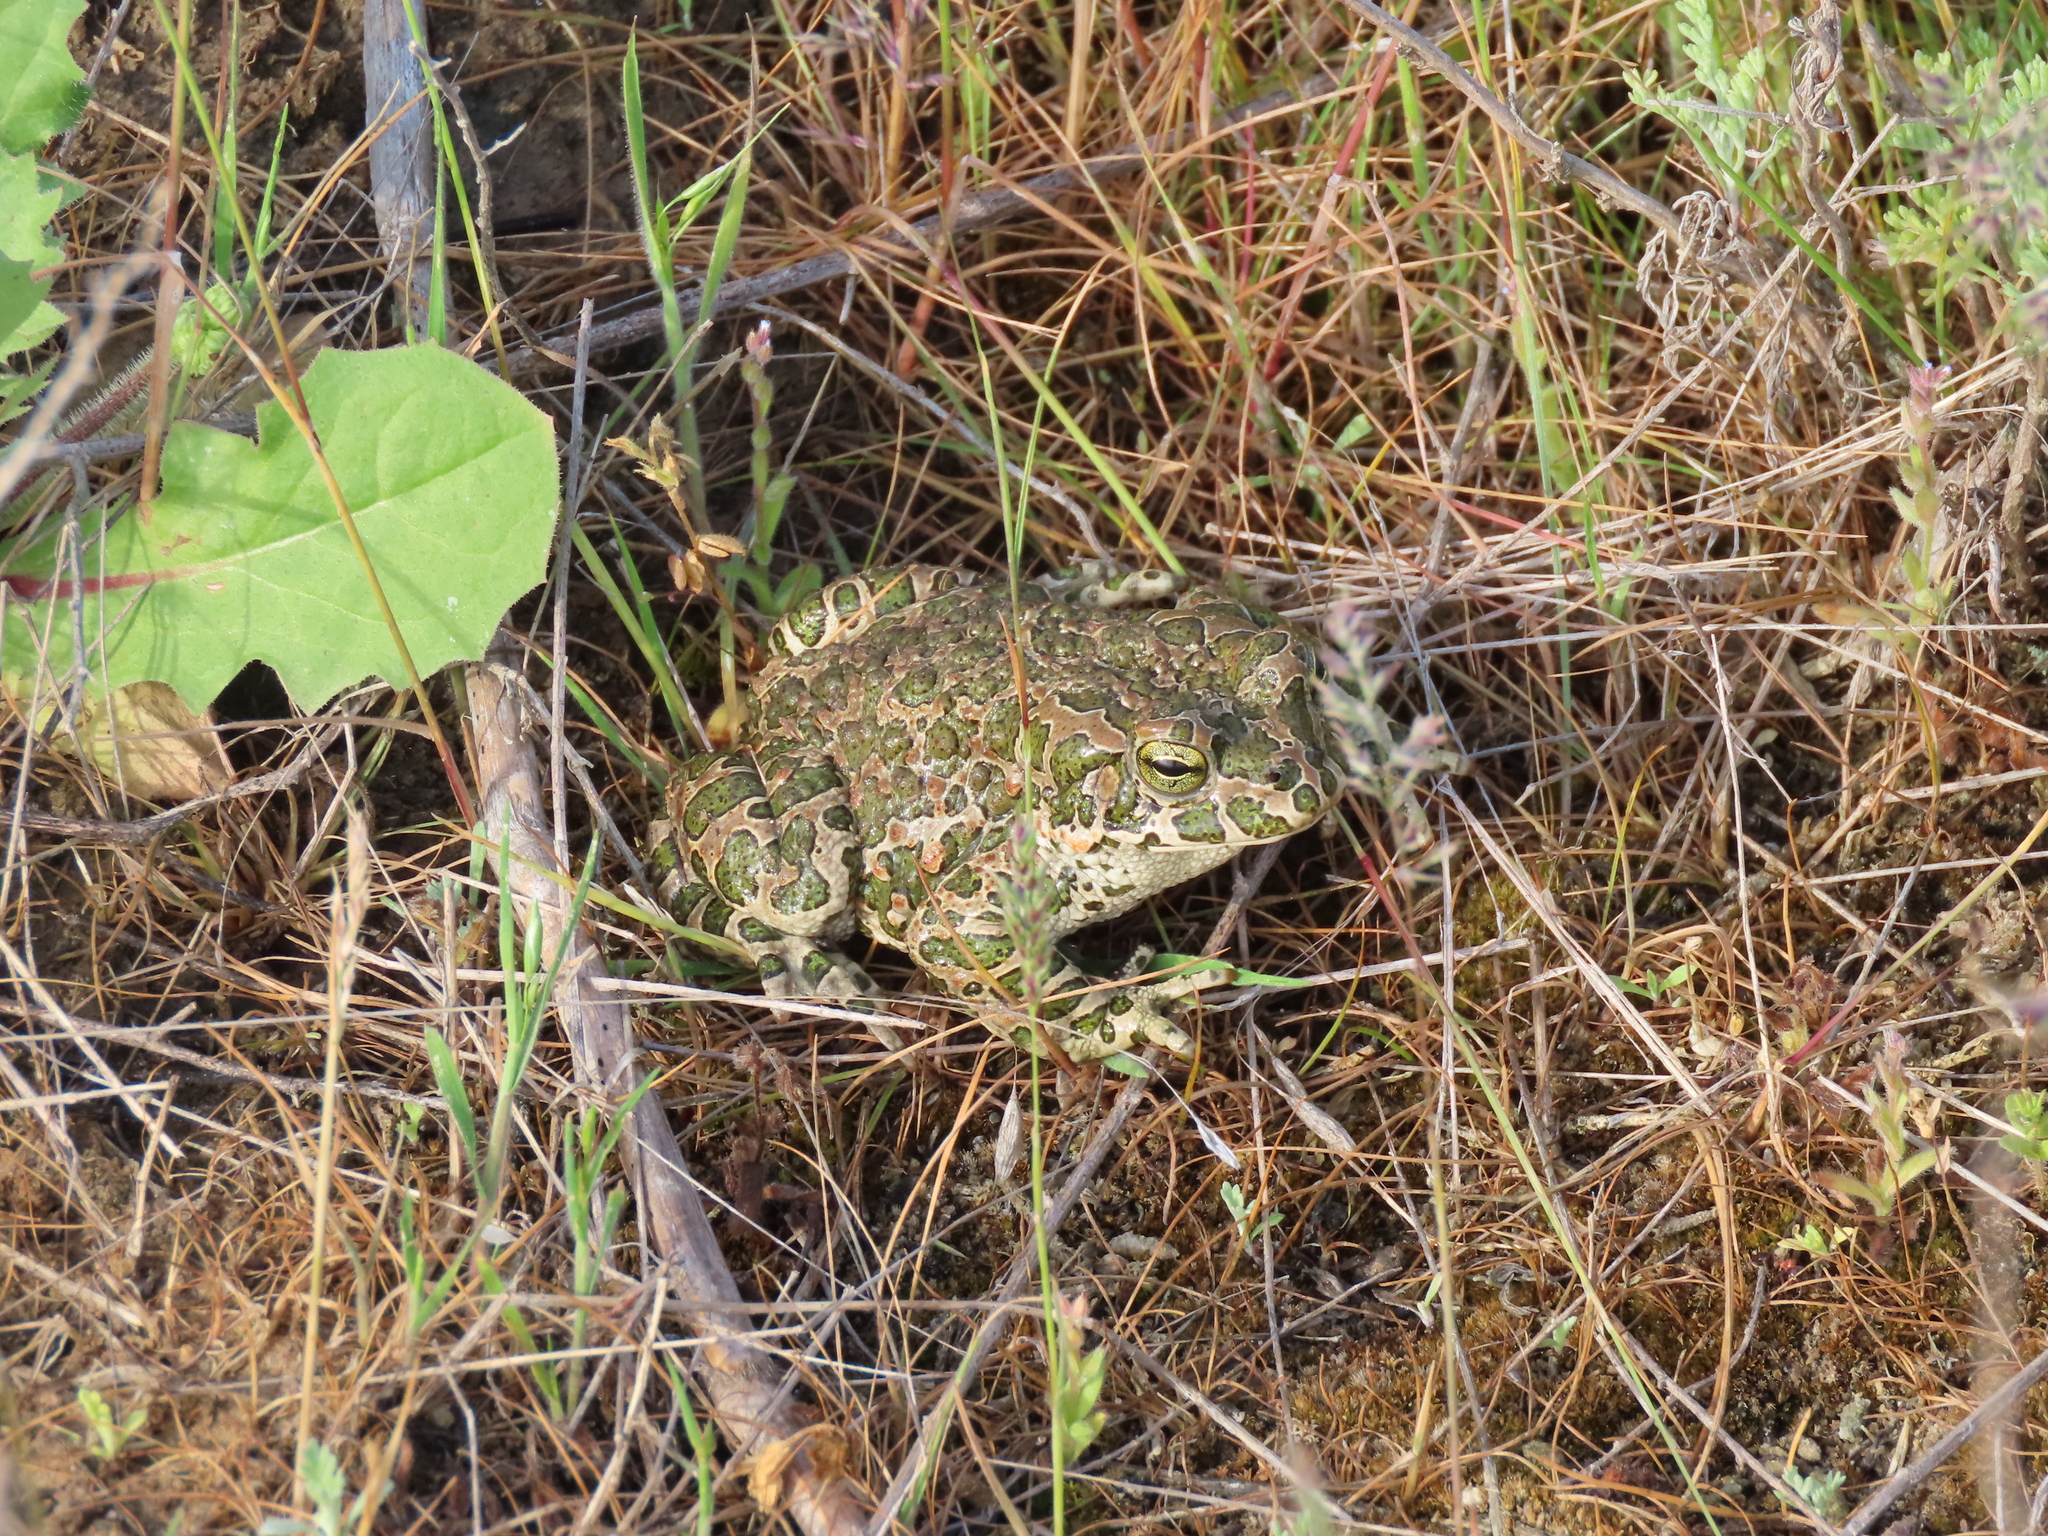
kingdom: Animalia
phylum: Chordata
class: Amphibia
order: Anura
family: Bufonidae
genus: Bufotes
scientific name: Bufotes viridis
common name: European green toad
